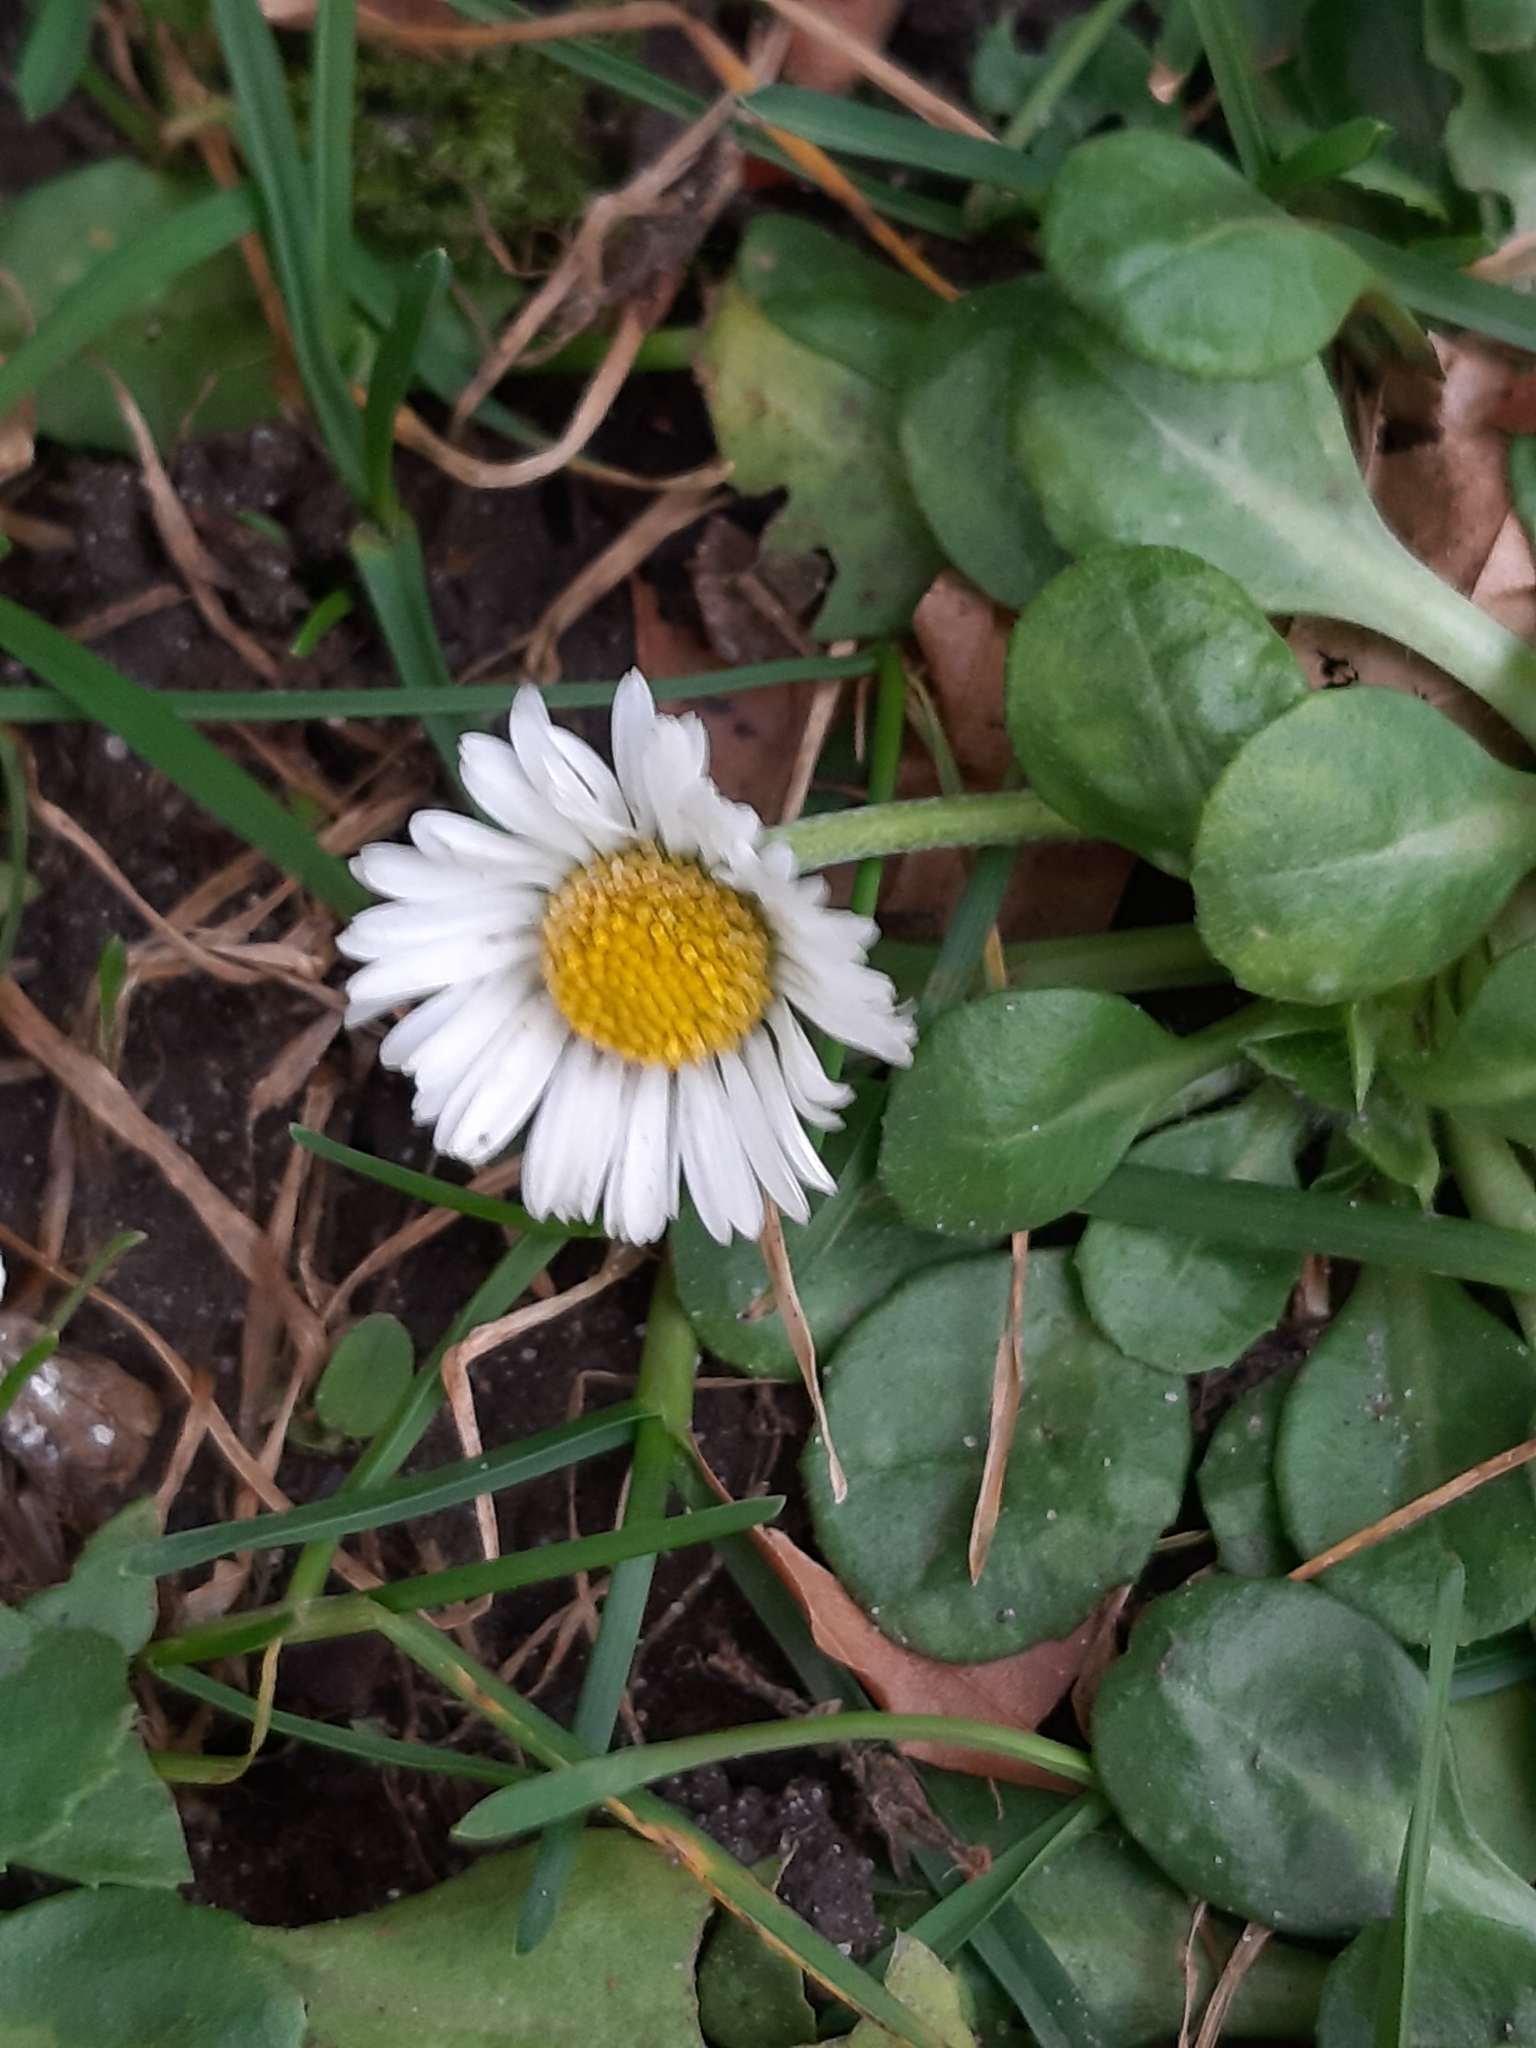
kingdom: Plantae
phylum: Tracheophyta
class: Magnoliopsida
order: Asterales
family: Asteraceae
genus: Bellis
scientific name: Bellis perennis
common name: Lawndaisy
